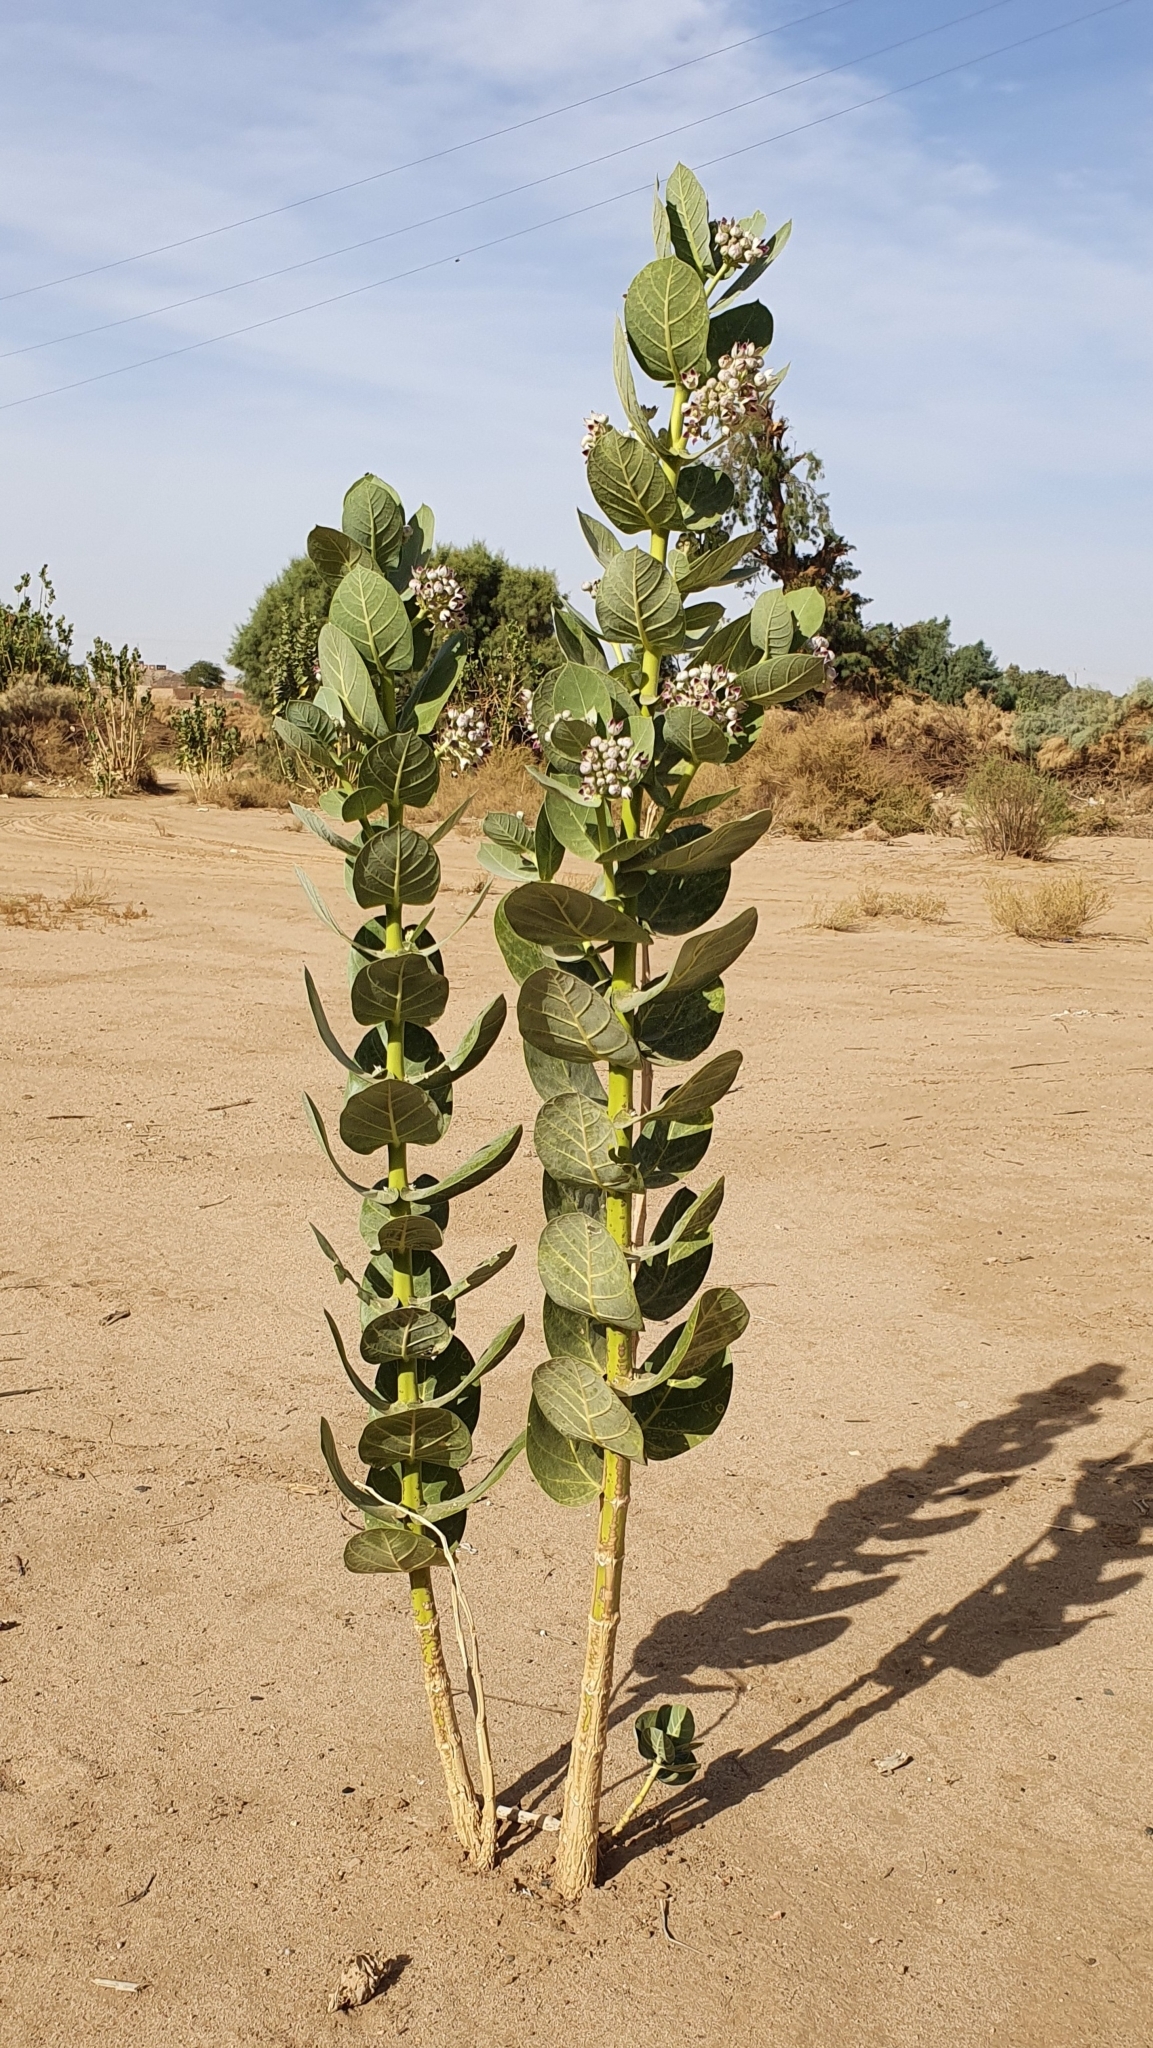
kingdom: Plantae
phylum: Tracheophyta
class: Magnoliopsida
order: Gentianales
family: Apocynaceae
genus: Calotropis
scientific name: Calotropis procera
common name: Roostertree
